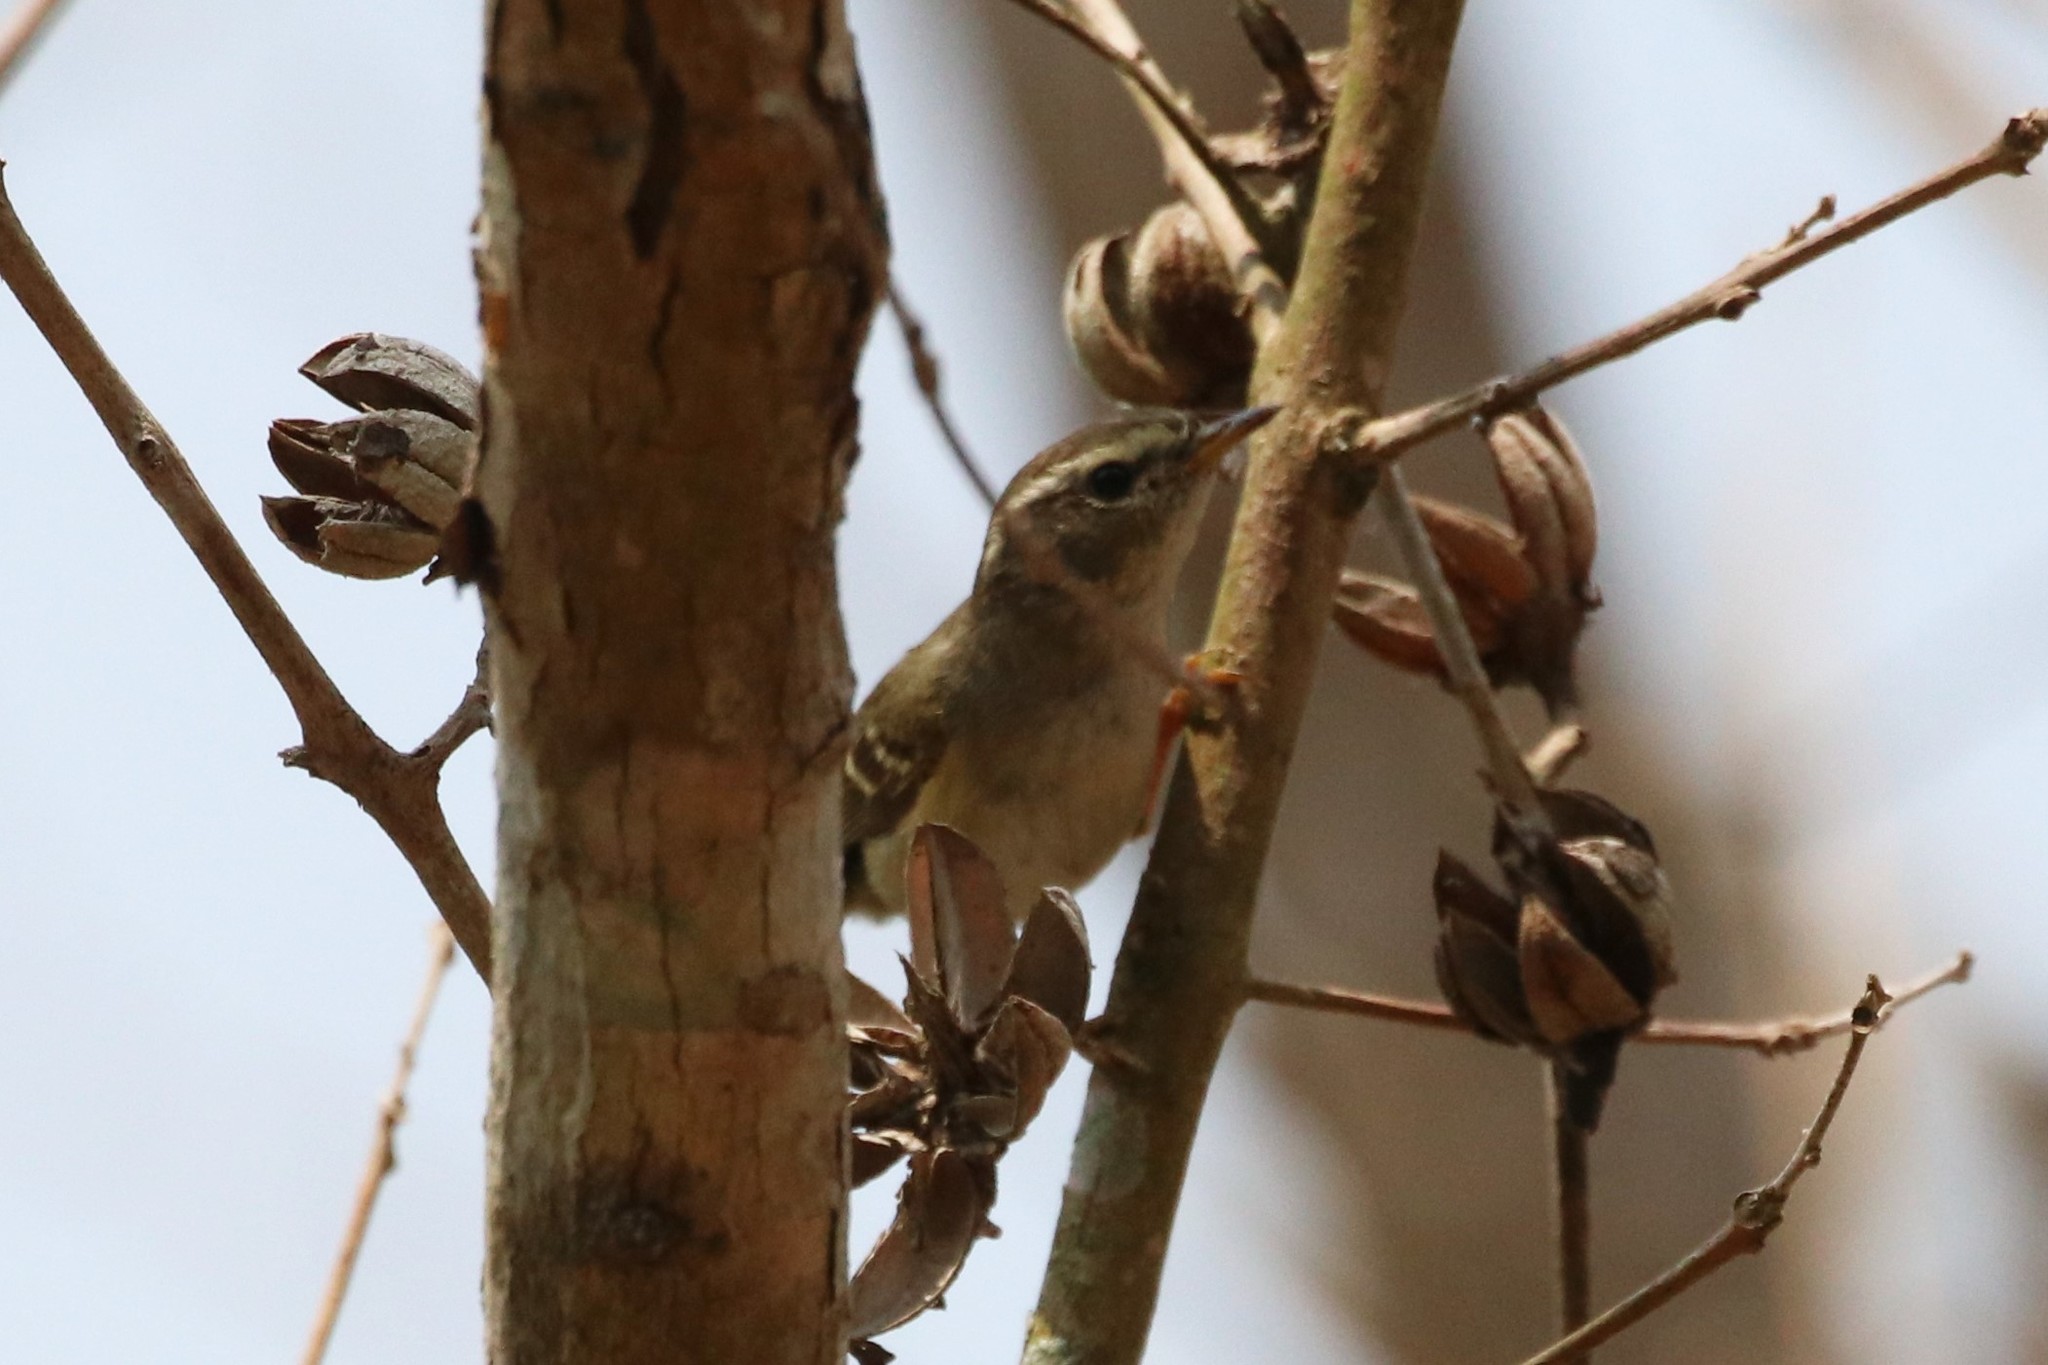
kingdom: Animalia
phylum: Chordata
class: Aves
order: Passeriformes
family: Phylloscopidae
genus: Phylloscopus
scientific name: Phylloscopus inornatus
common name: Yellow-browed warbler
